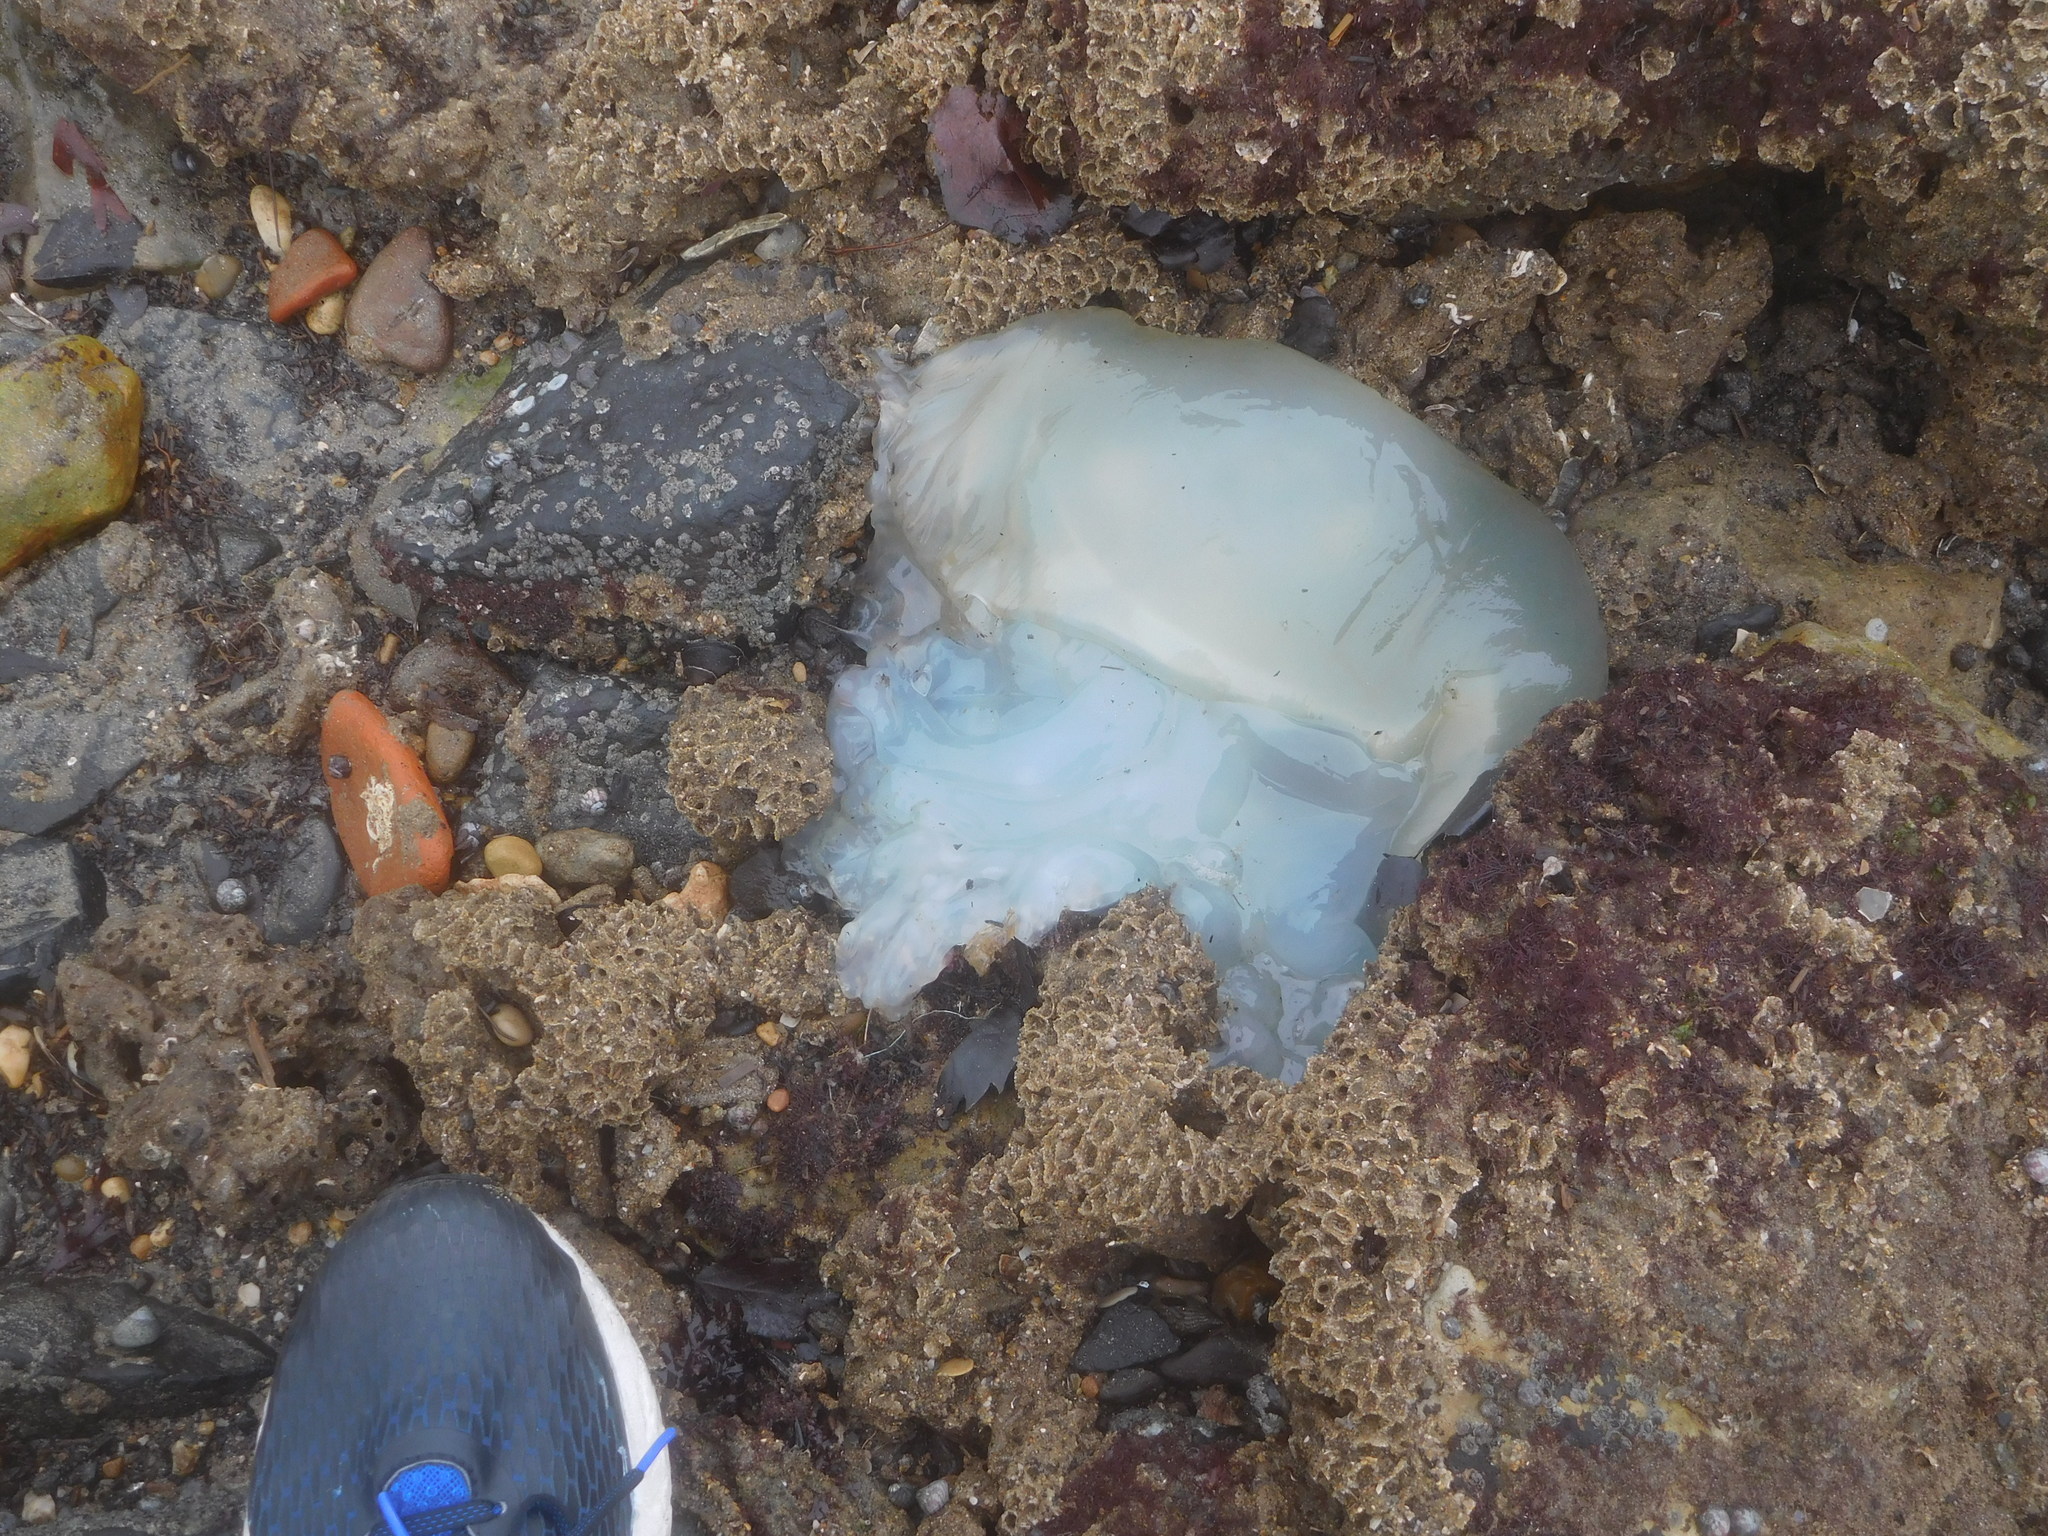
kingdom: Animalia
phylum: Cnidaria
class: Scyphozoa
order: Rhizostomeae
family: Catostylidae
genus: Catostylus
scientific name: Catostylus tagi
